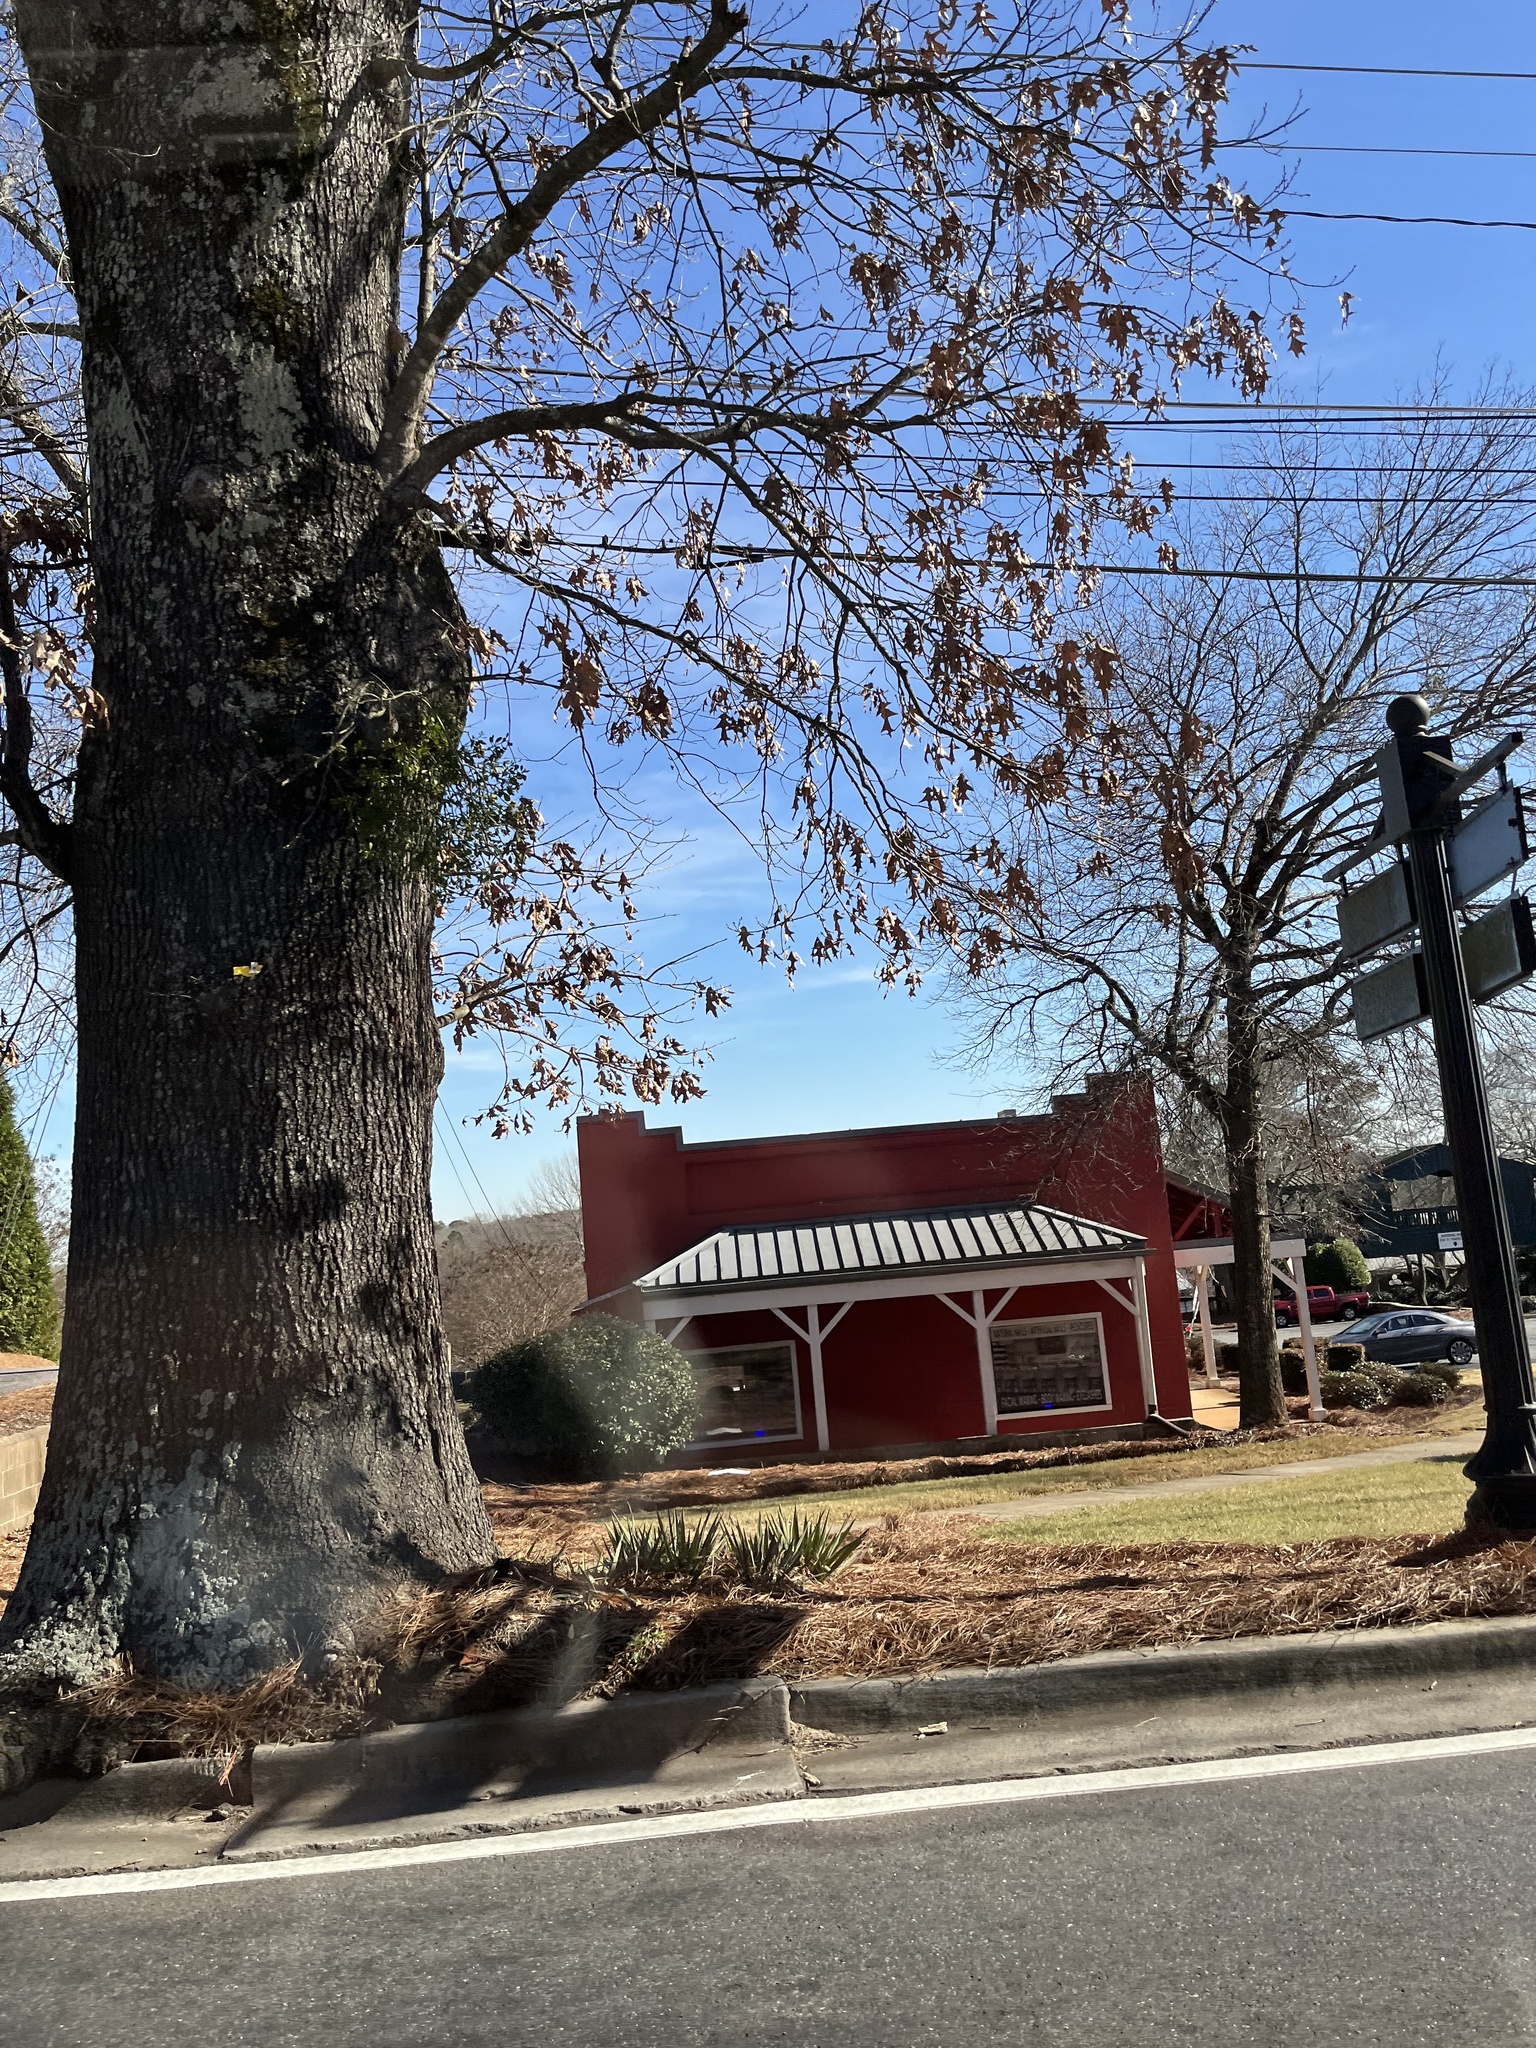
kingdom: Plantae
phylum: Tracheophyta
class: Magnoliopsida
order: Santalales
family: Viscaceae
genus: Phoradendron
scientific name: Phoradendron leucarpum
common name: Pacific mistletoe
